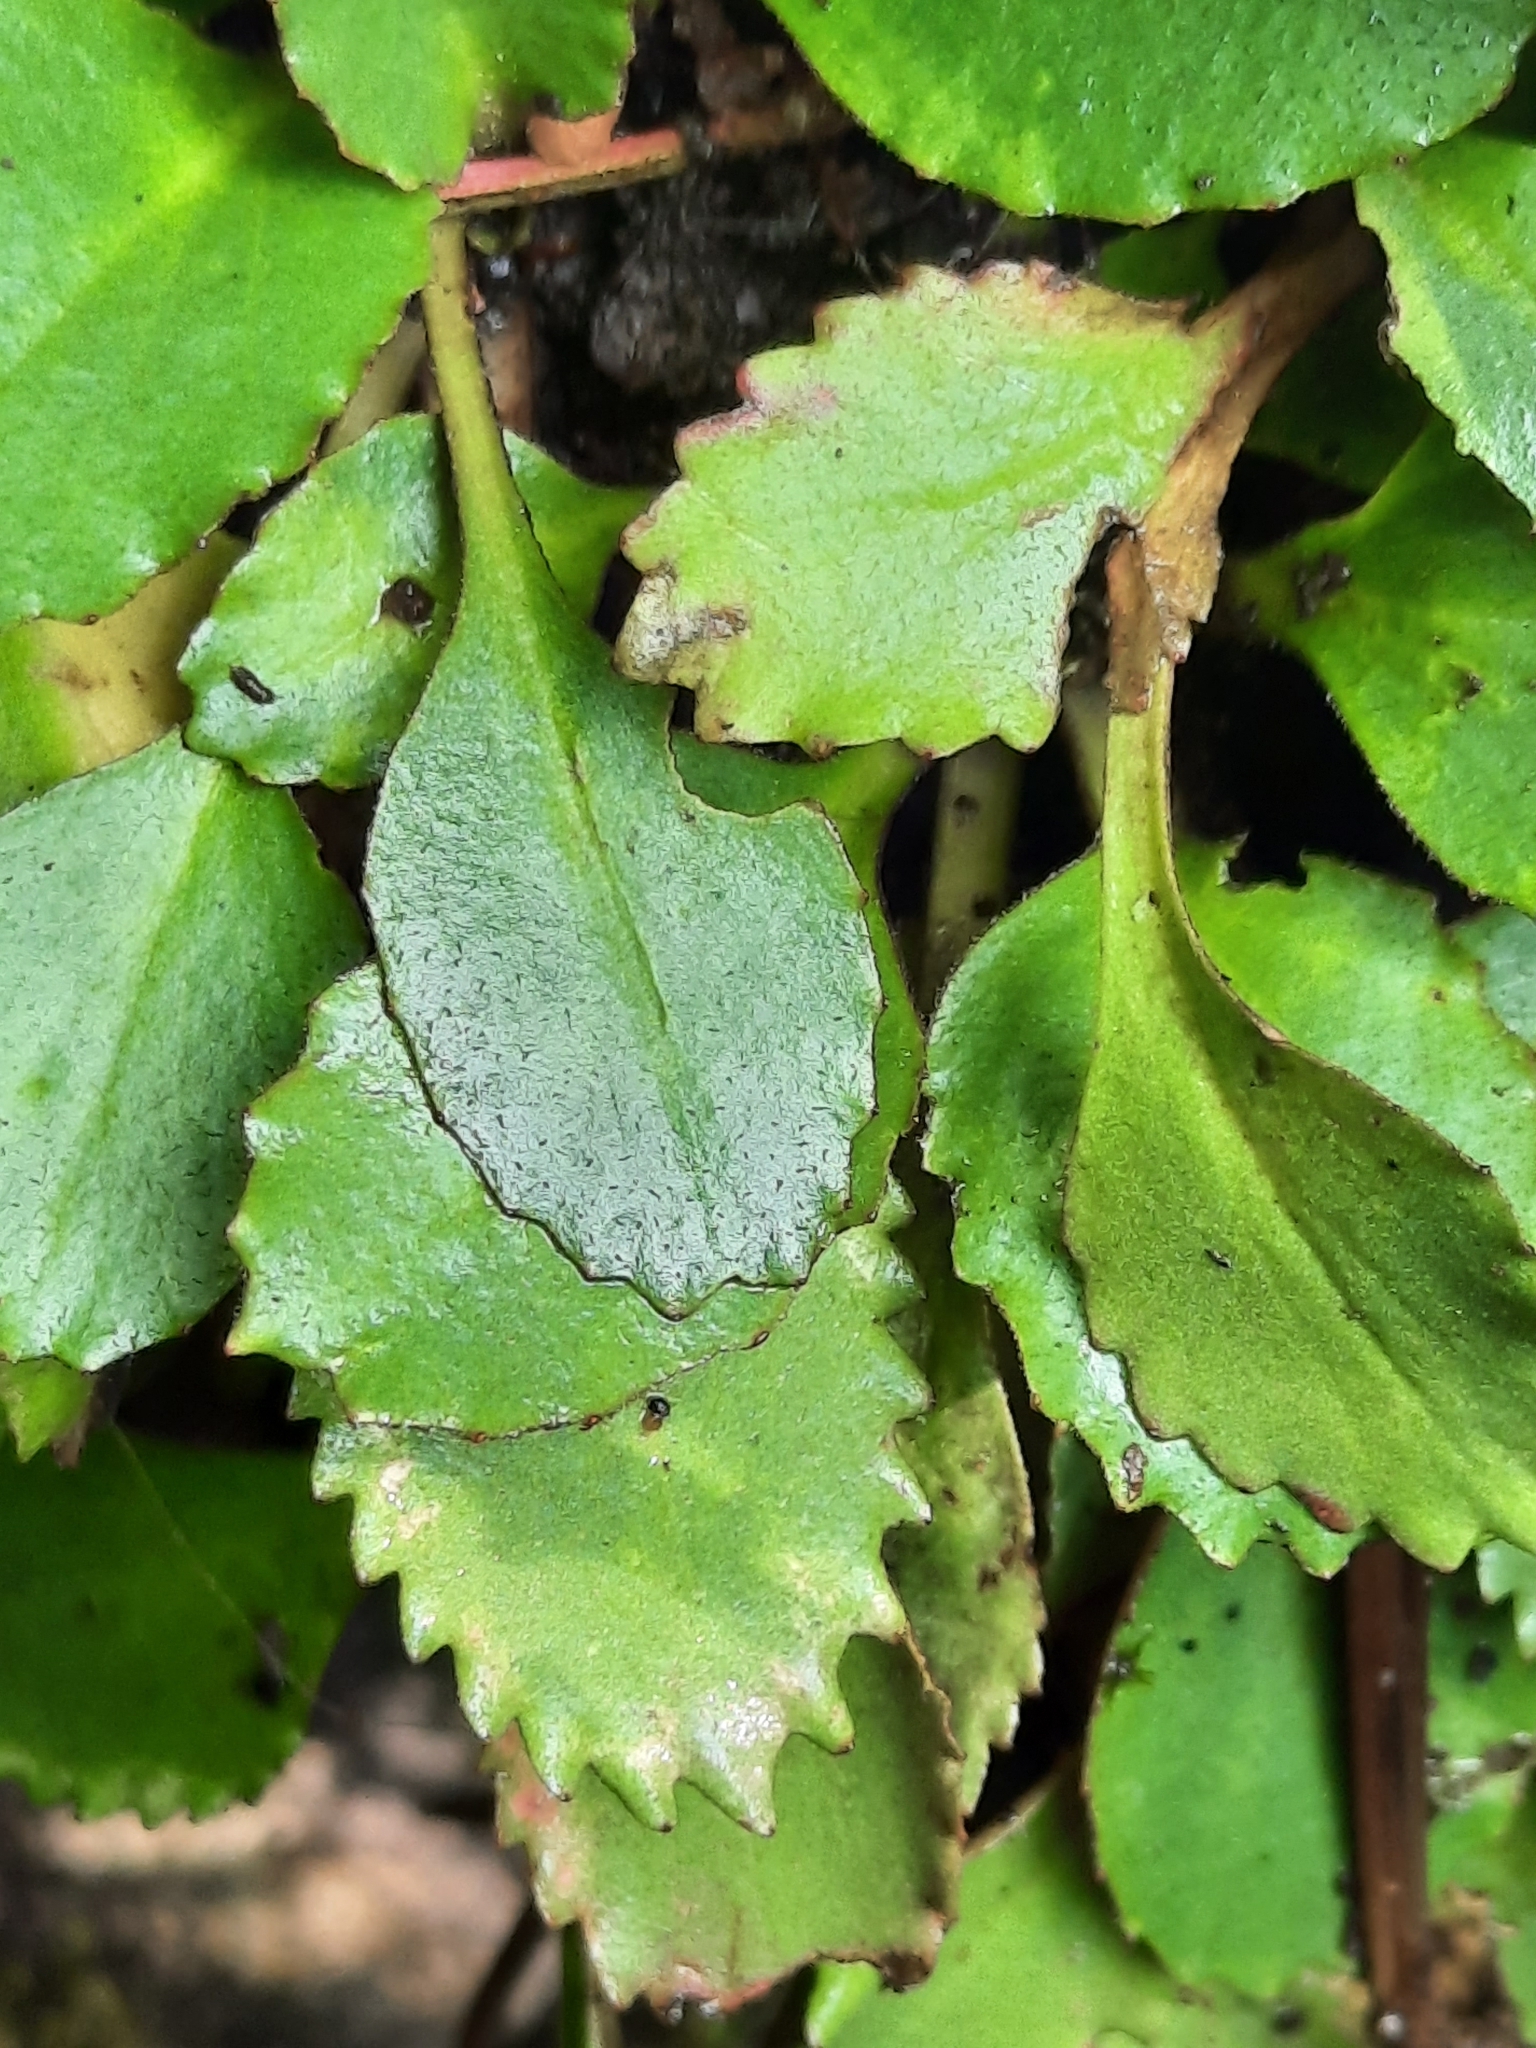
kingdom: Plantae
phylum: Tracheophyta
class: Magnoliopsida
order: Saxifragales
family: Saxifragaceae
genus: Micranthes
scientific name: Micranthes virginiensis
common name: Early saxifrage
